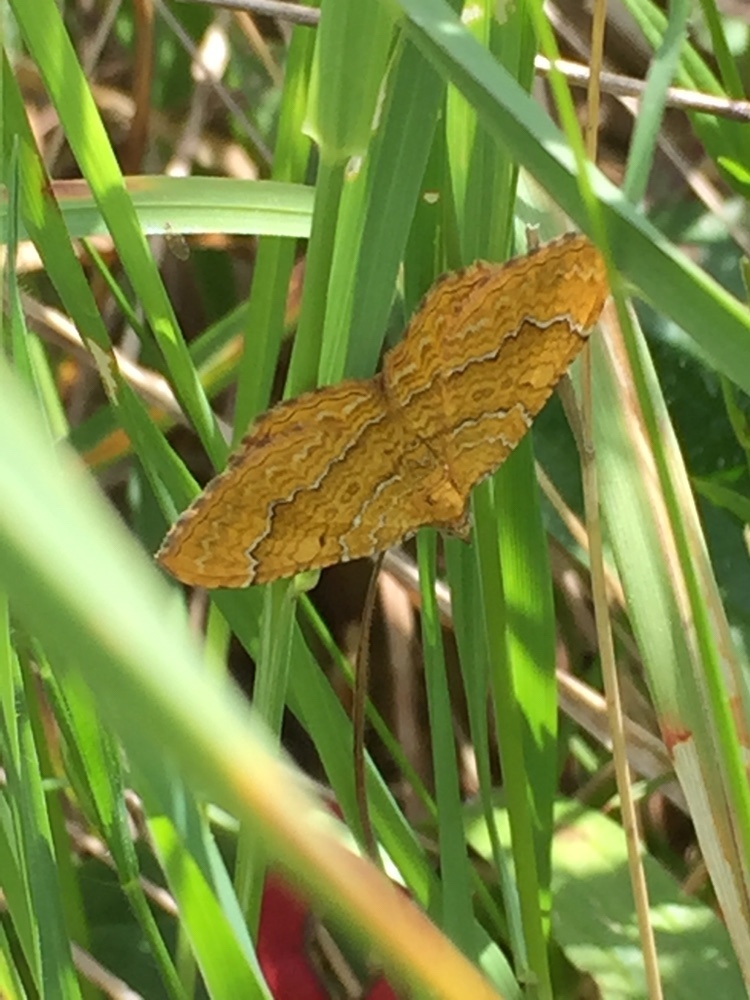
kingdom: Animalia
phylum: Arthropoda
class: Insecta
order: Lepidoptera
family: Geometridae
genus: Camptogramma
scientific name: Camptogramma bilineata
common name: Yellow shell
